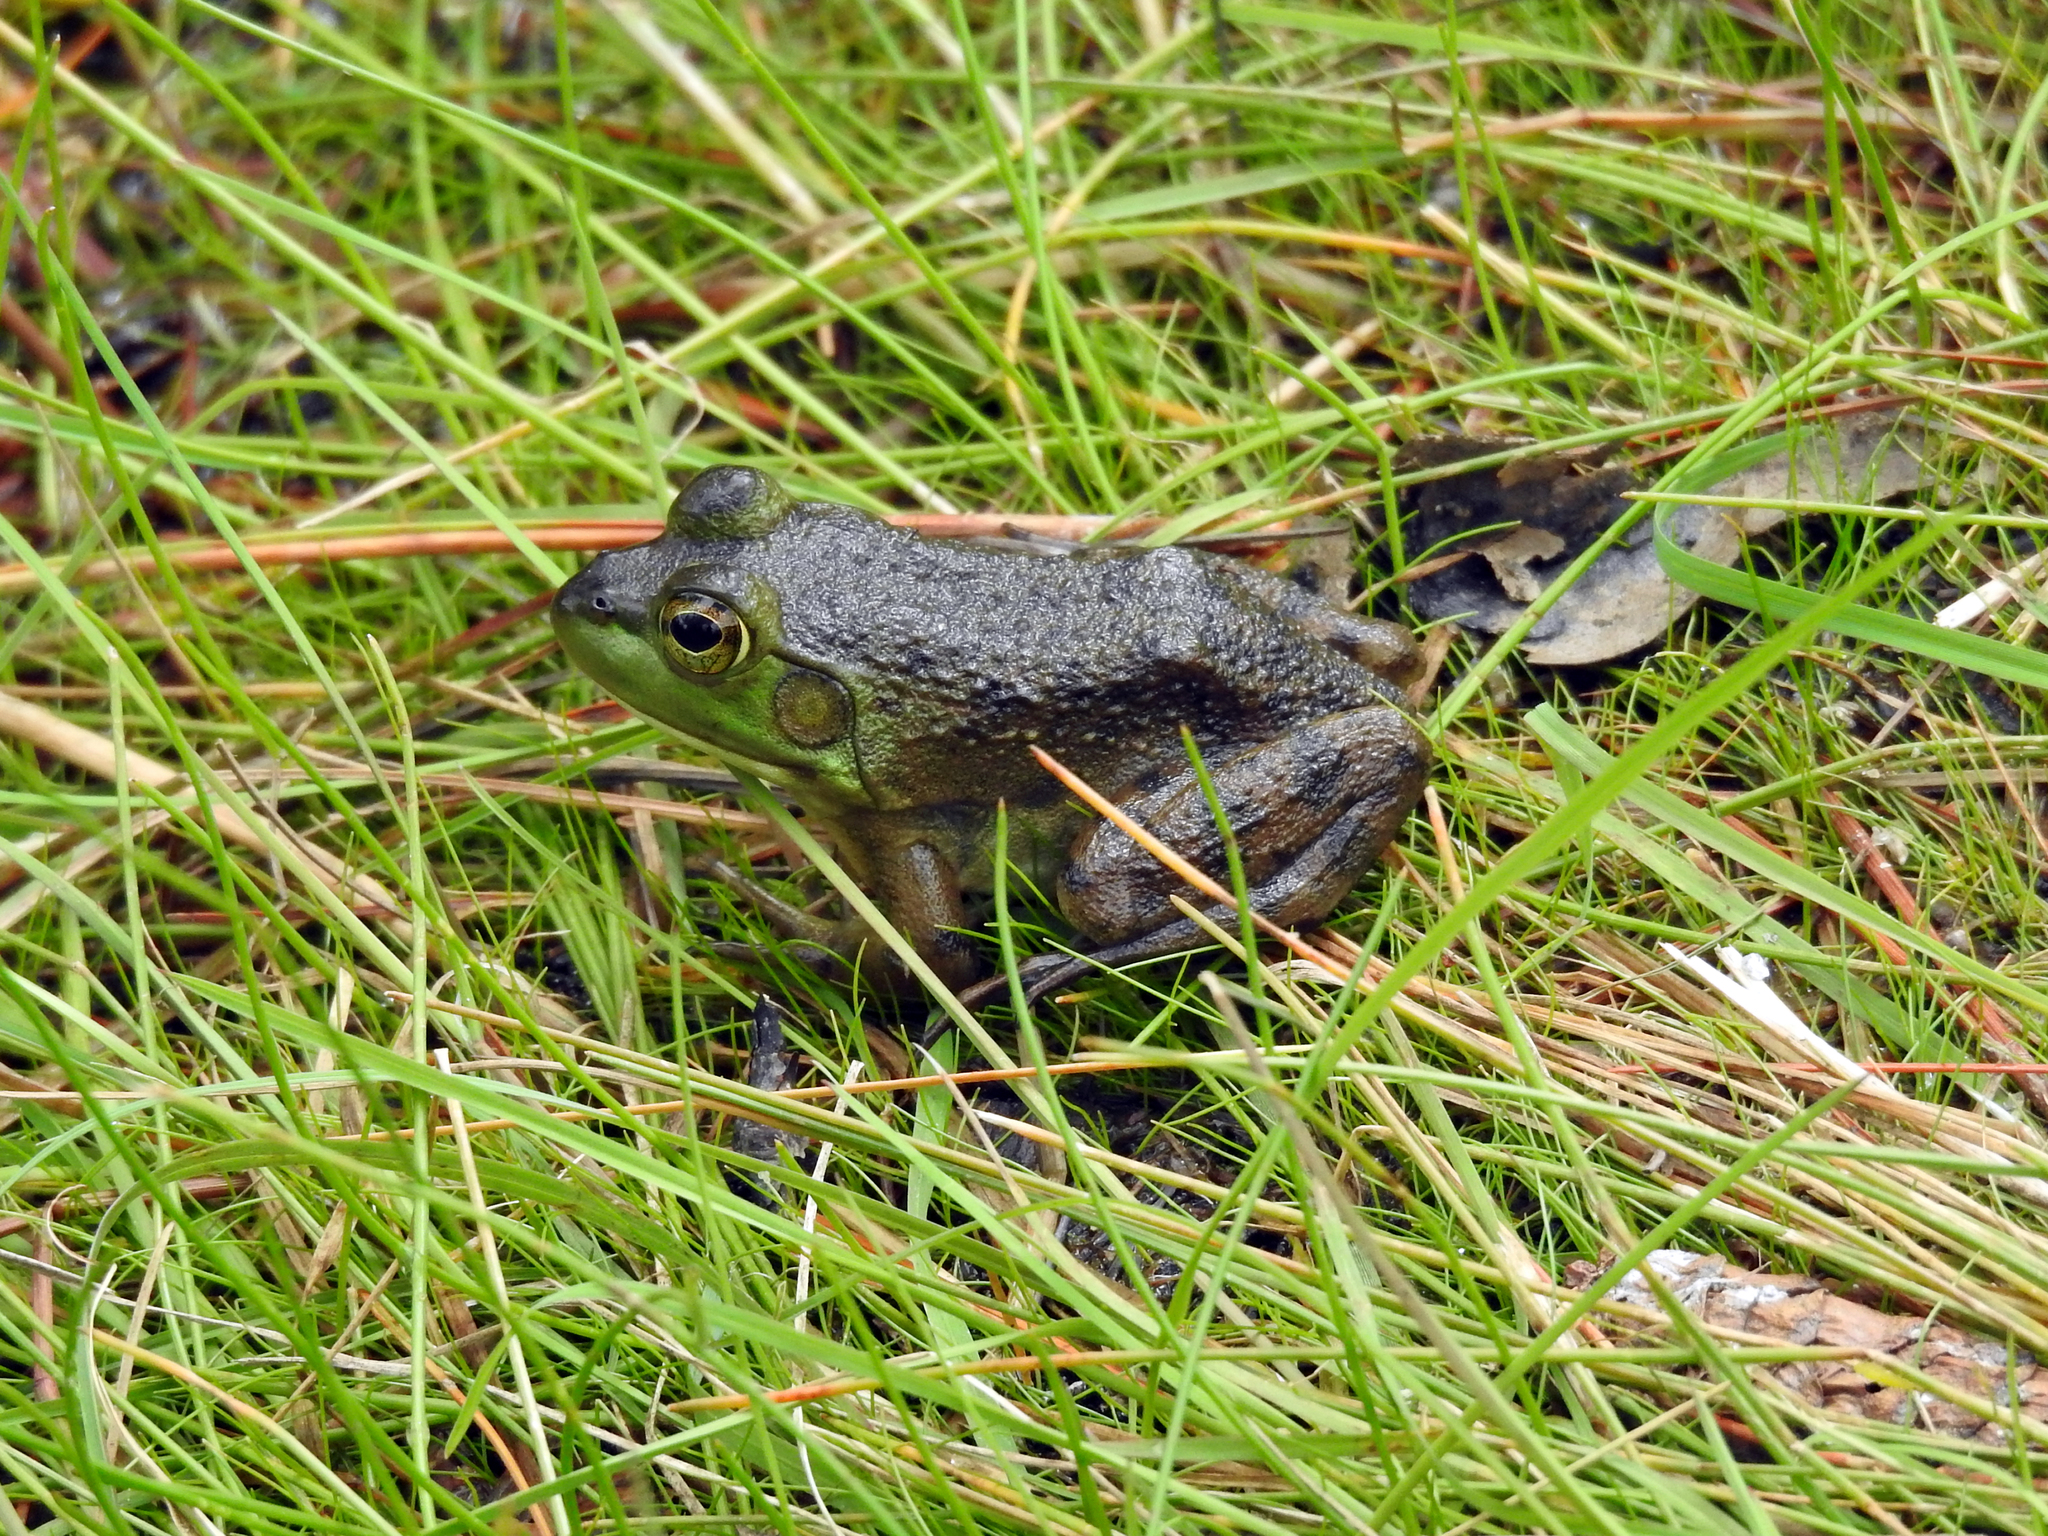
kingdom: Animalia
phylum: Chordata
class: Amphibia
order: Anura
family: Ranidae
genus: Lithobates
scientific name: Lithobates catesbeianus
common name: American bullfrog
